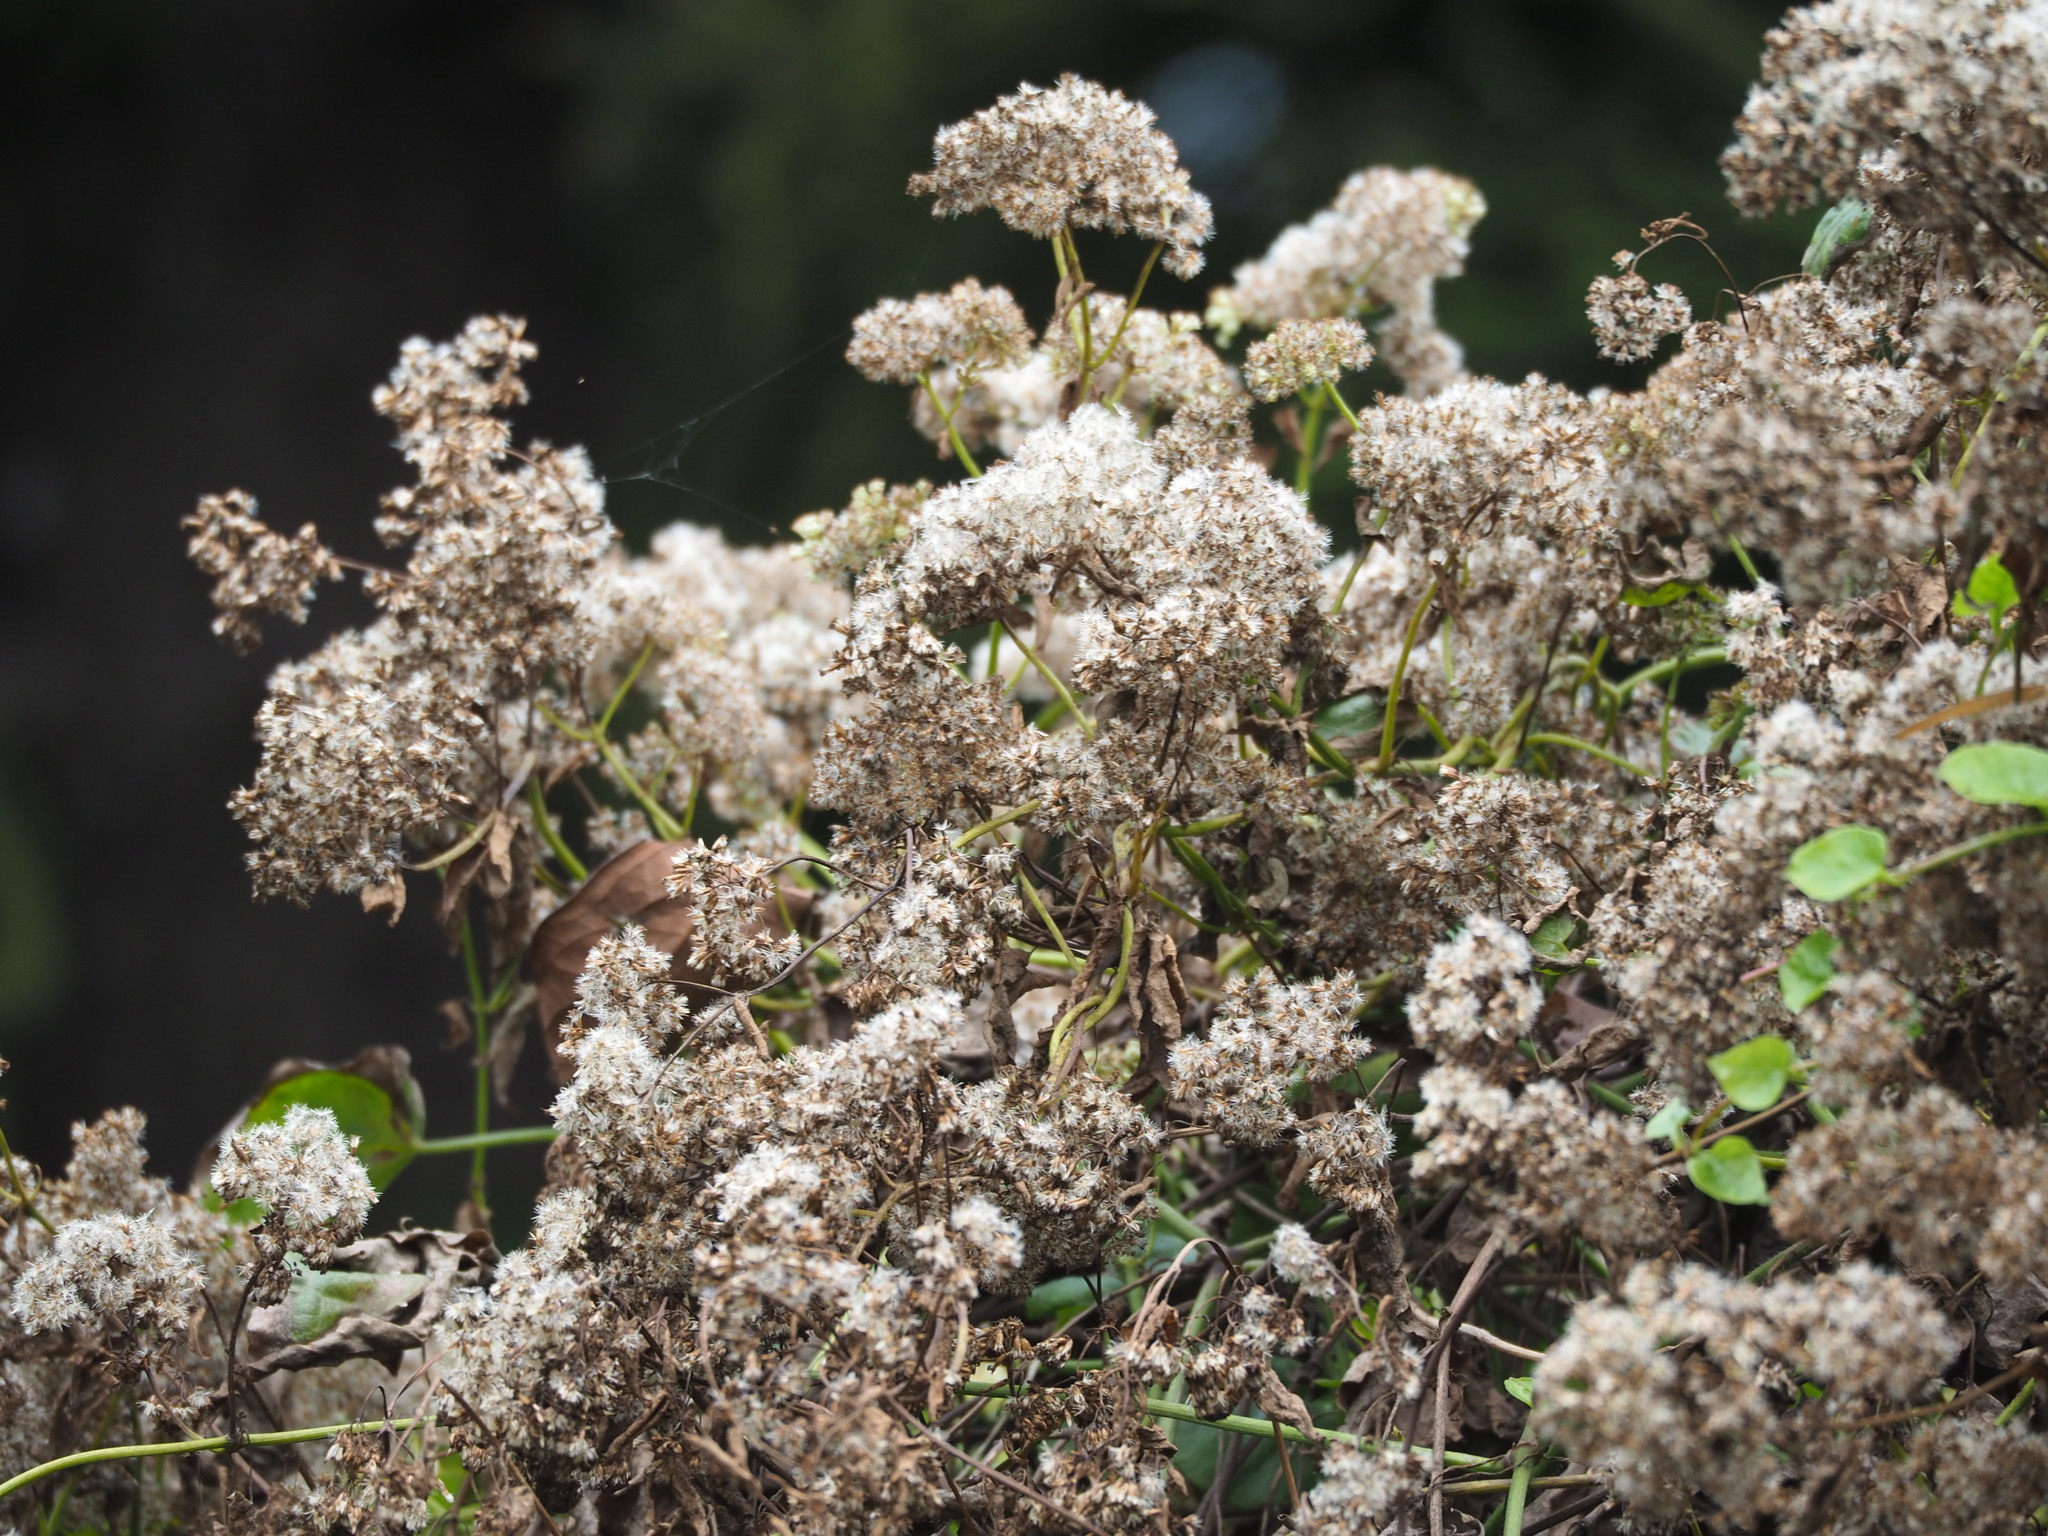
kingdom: Plantae
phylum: Tracheophyta
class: Magnoliopsida
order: Asterales
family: Asteraceae
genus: Mikania
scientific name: Mikania micrantha
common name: Mile-a-minute
